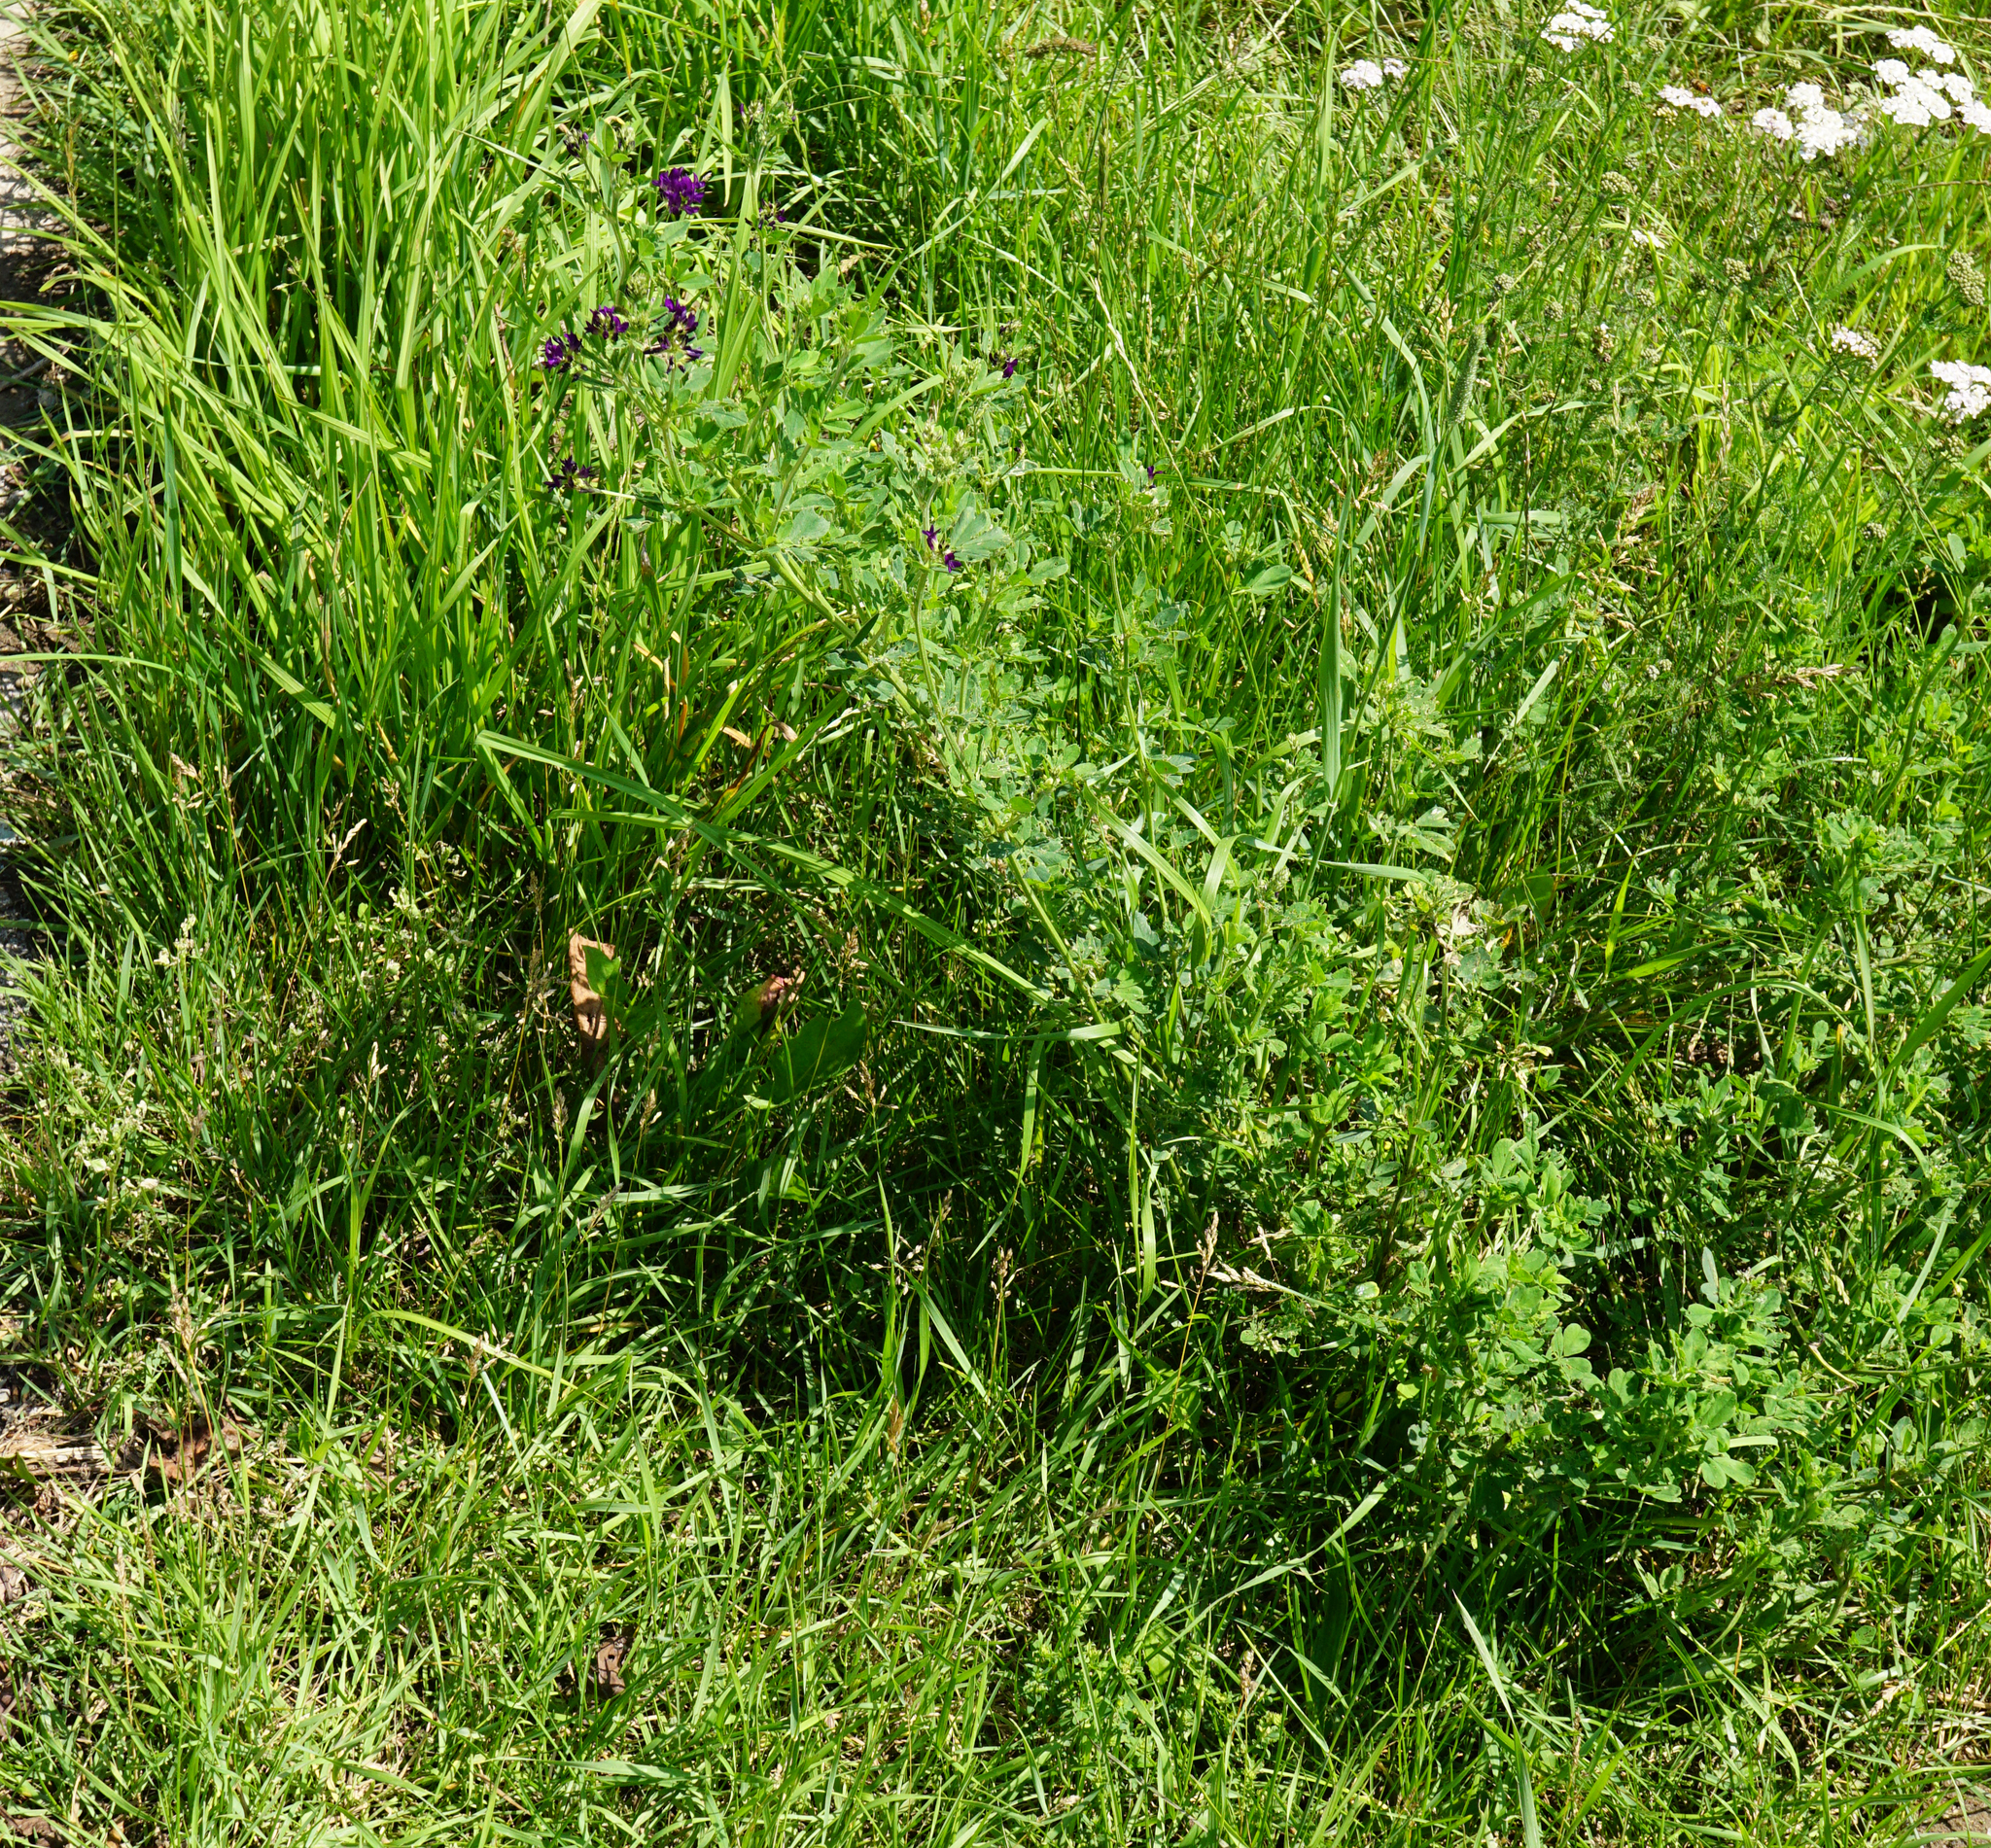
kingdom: Plantae
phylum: Tracheophyta
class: Magnoliopsida
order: Fabales
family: Fabaceae
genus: Medicago
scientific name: Medicago sativa
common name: Alfalfa
